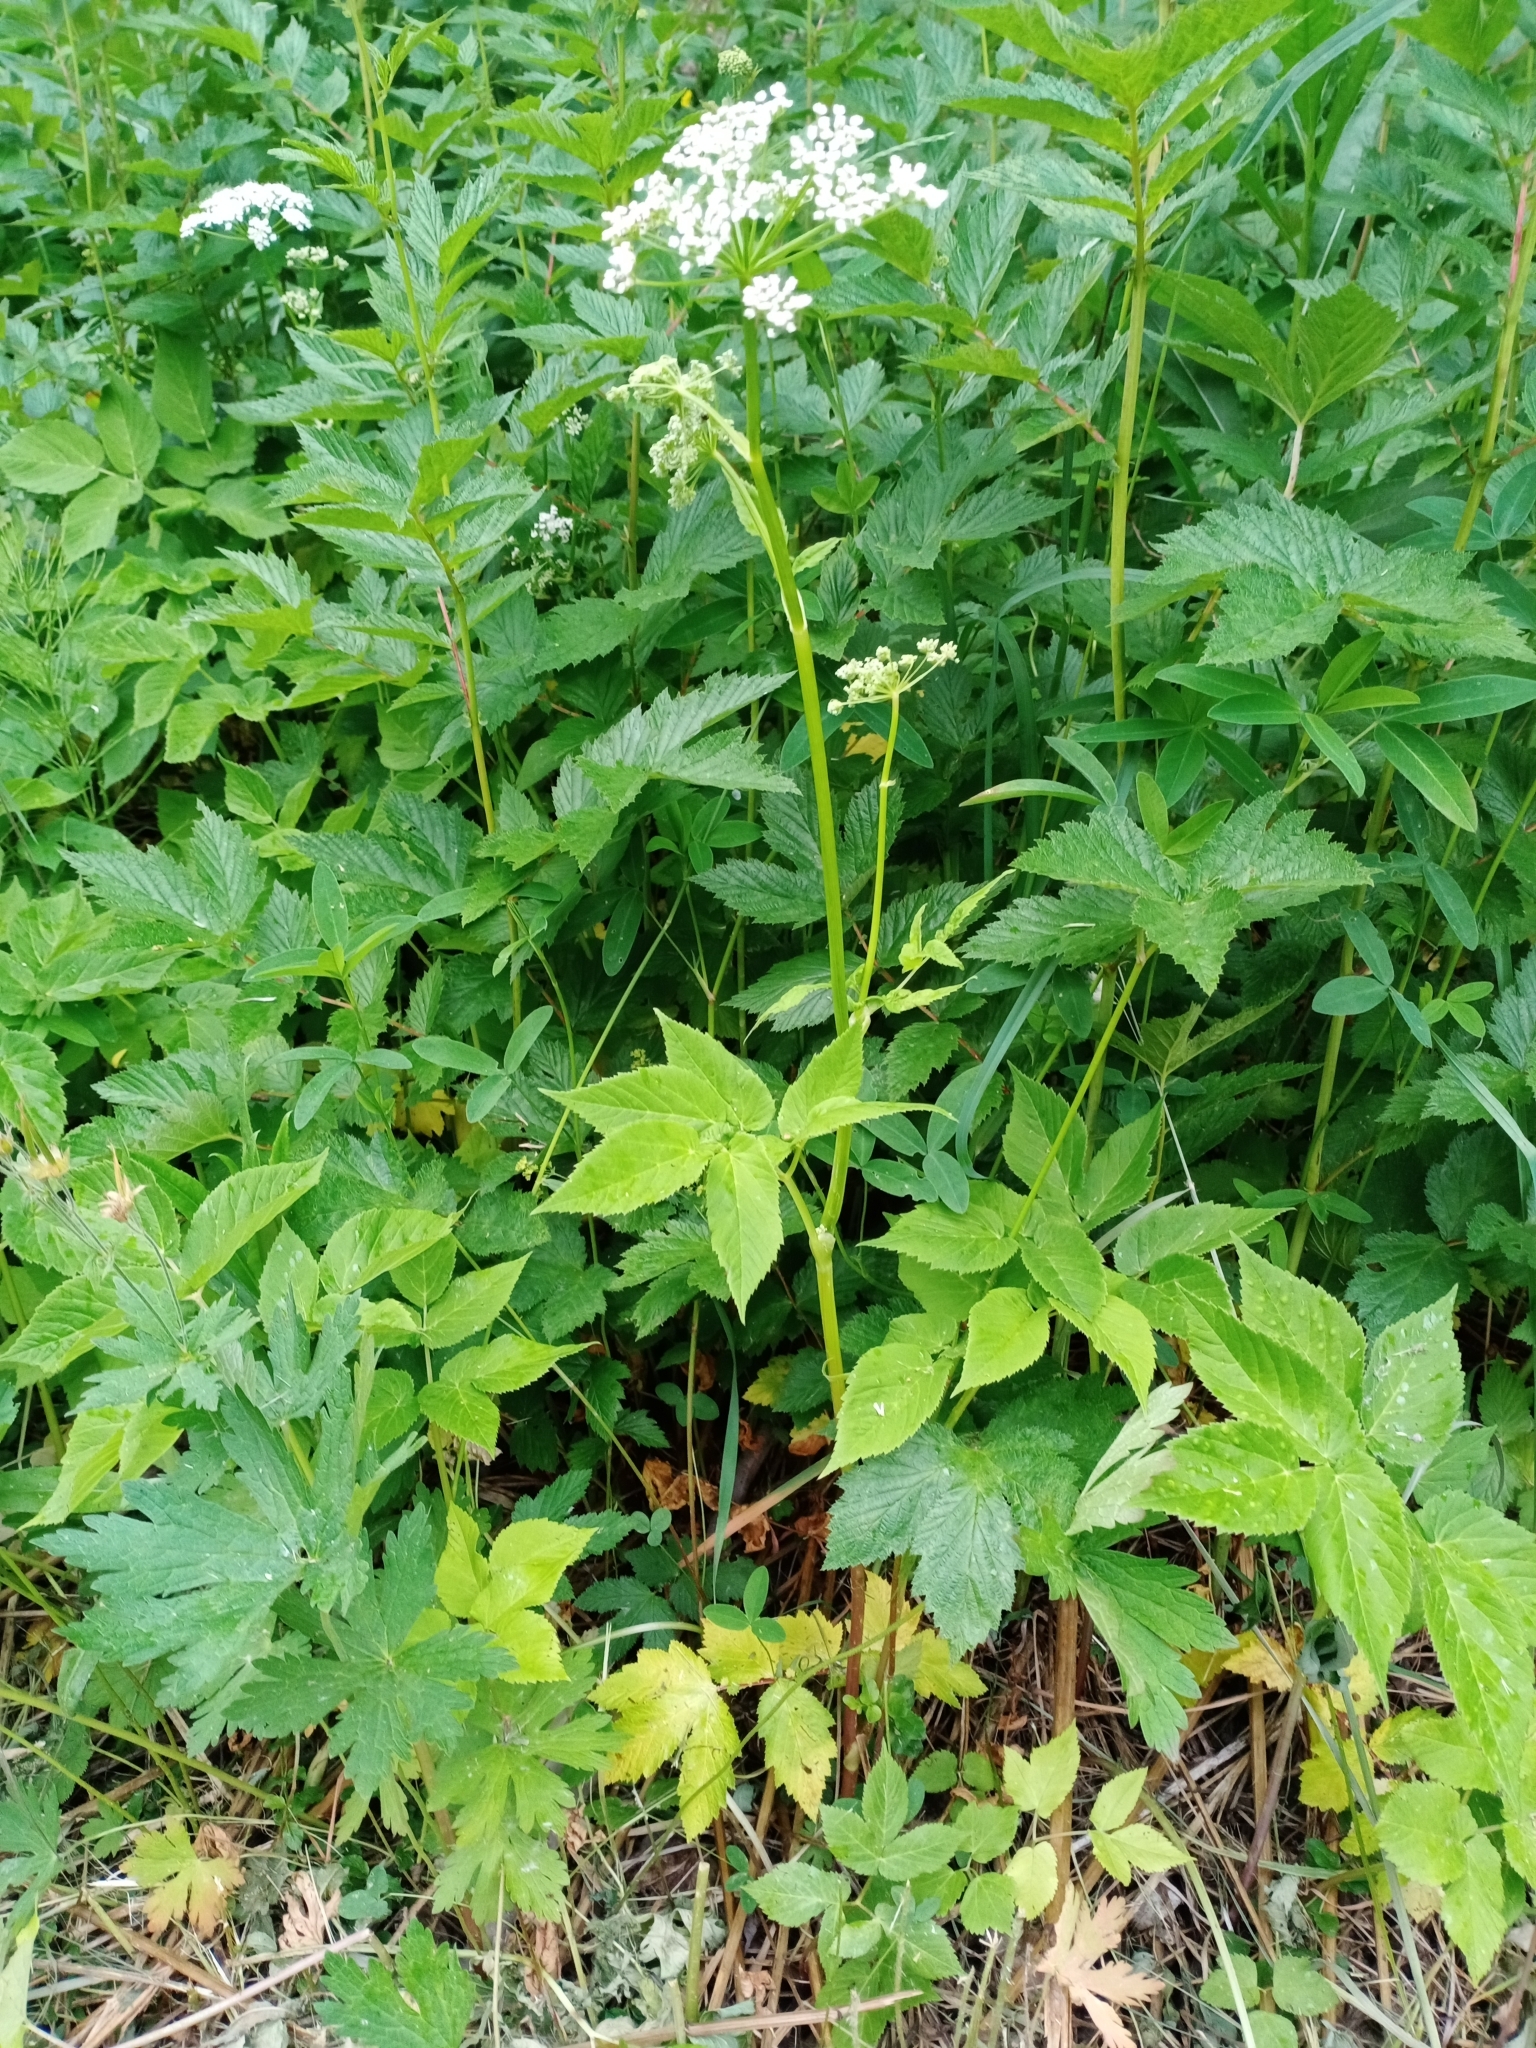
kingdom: Plantae
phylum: Tracheophyta
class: Magnoliopsida
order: Apiales
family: Apiaceae
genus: Aegopodium
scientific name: Aegopodium podagraria
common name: Ground-elder
